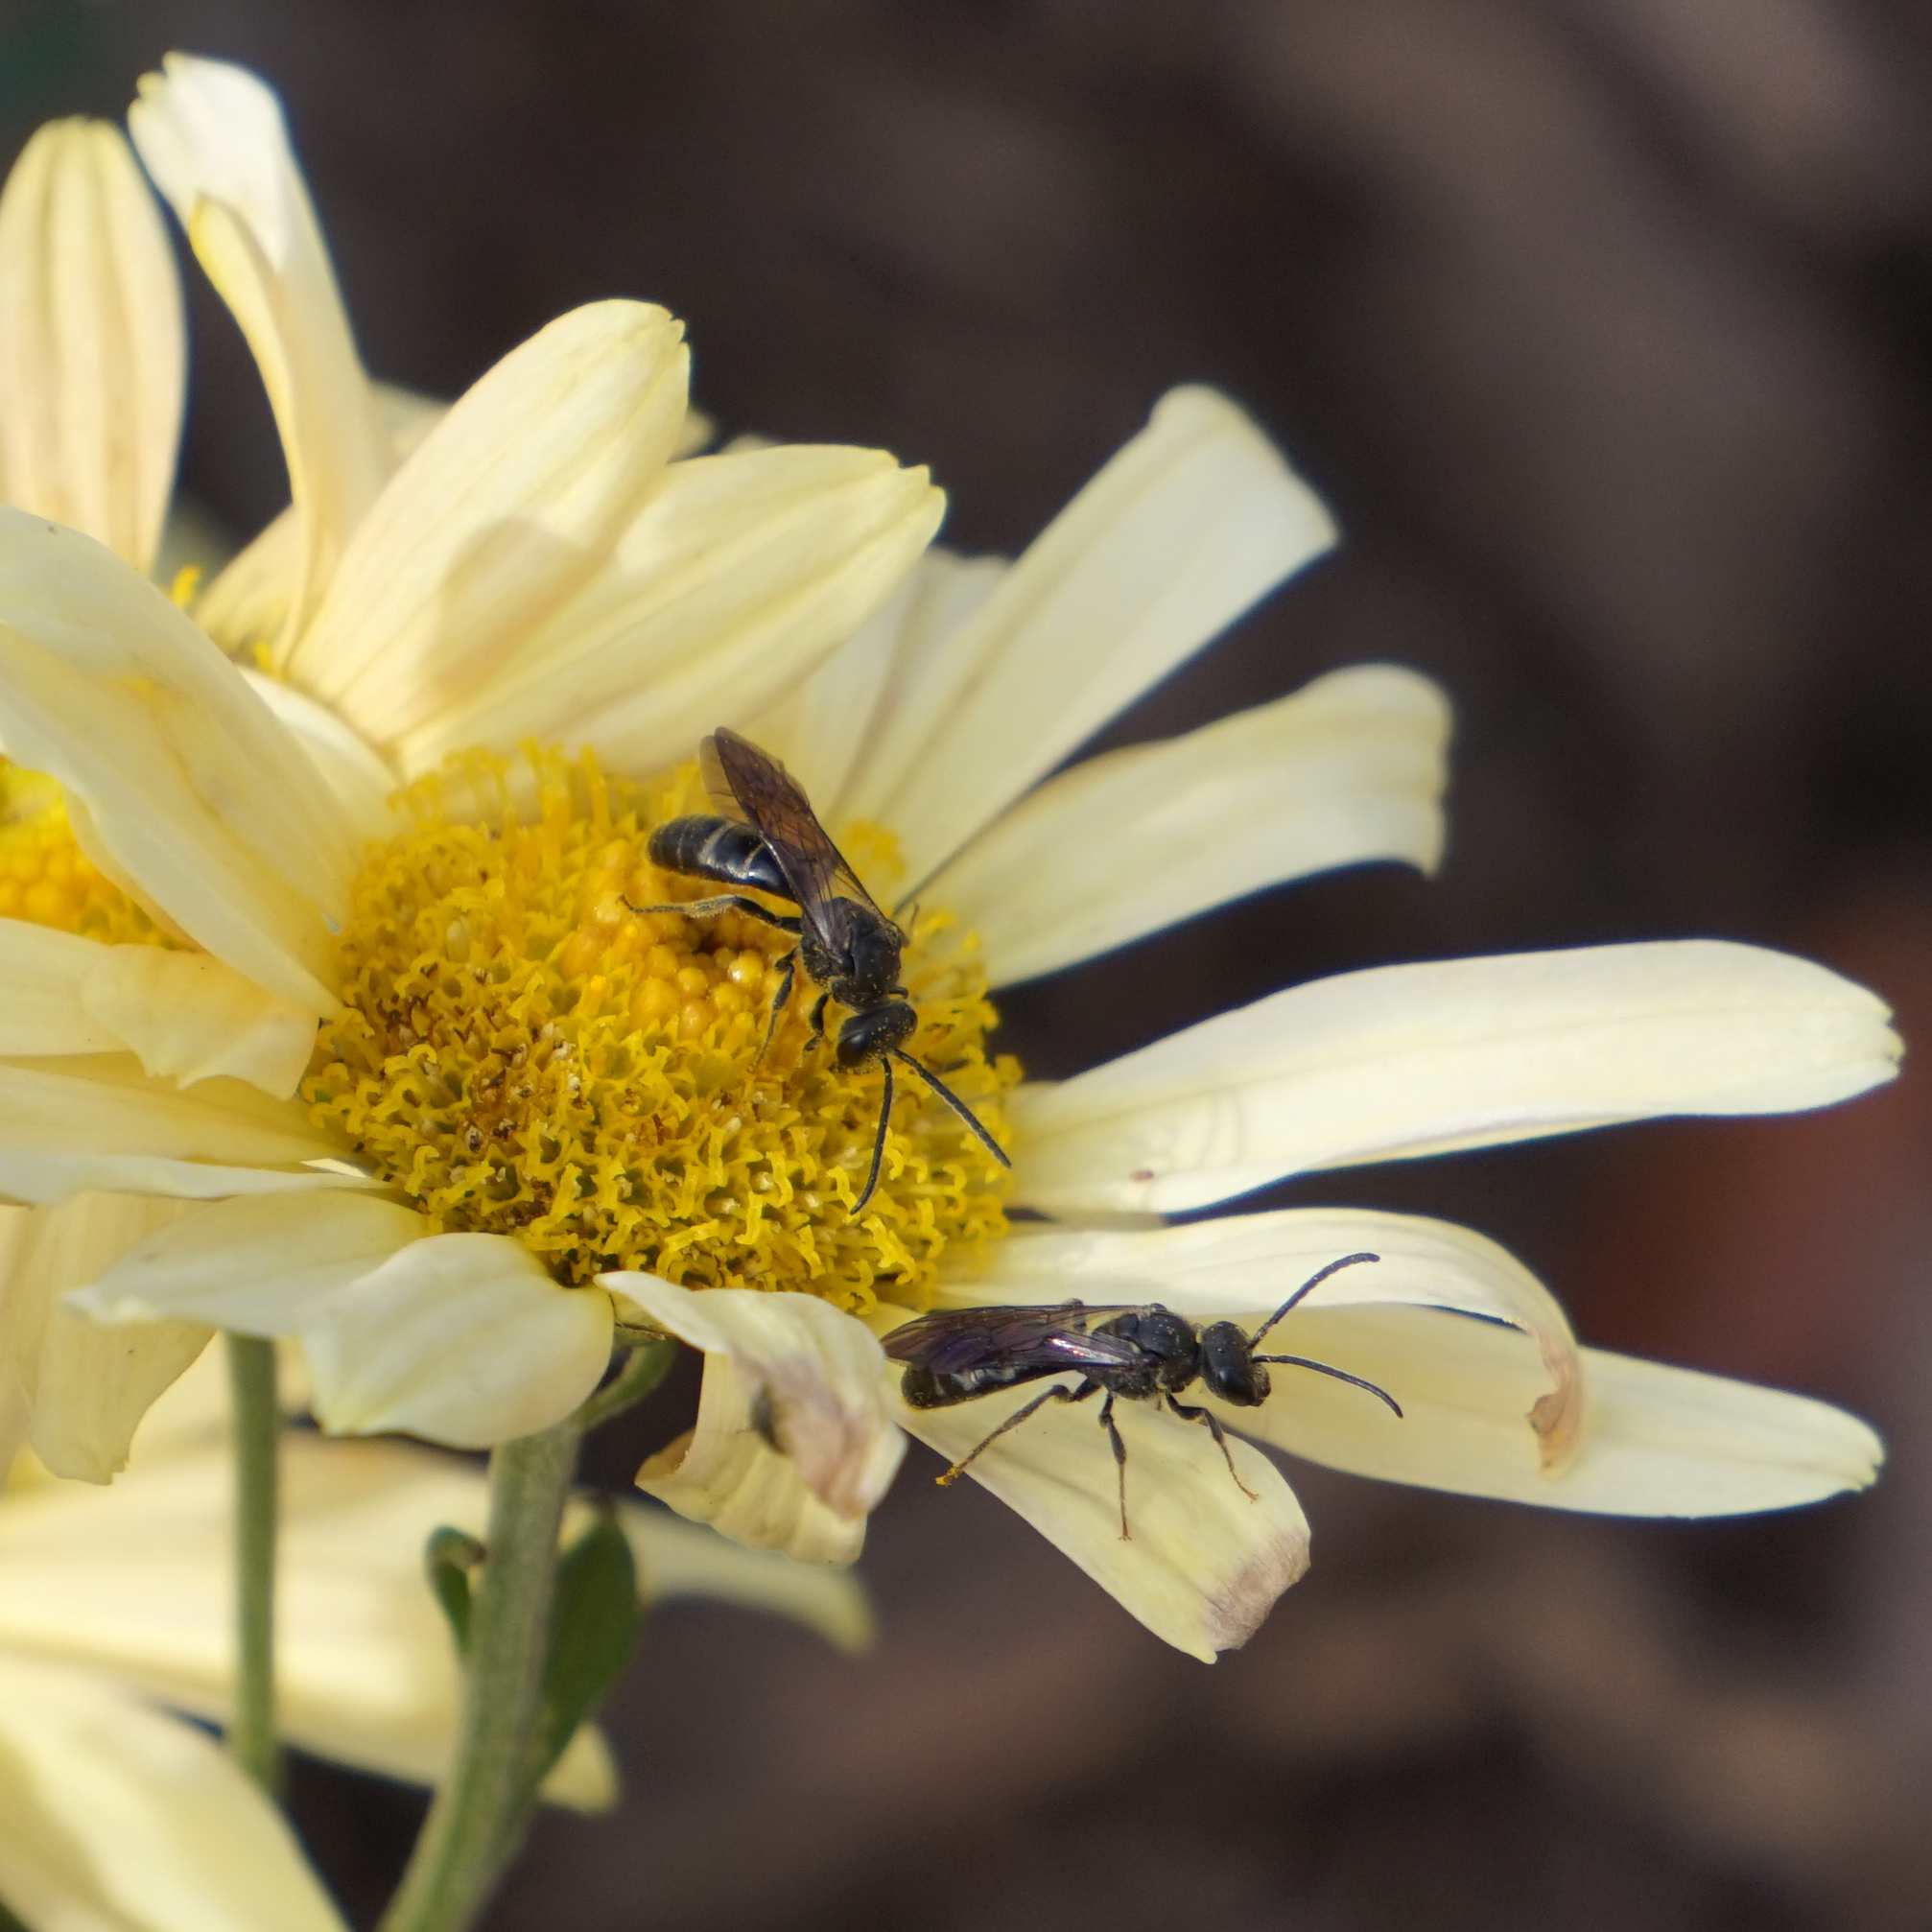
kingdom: Animalia
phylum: Arthropoda
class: Insecta
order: Hymenoptera
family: Halictidae
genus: Lasioglossum
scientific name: Lasioglossum fuscipenne
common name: Brown-winged sweat bee
